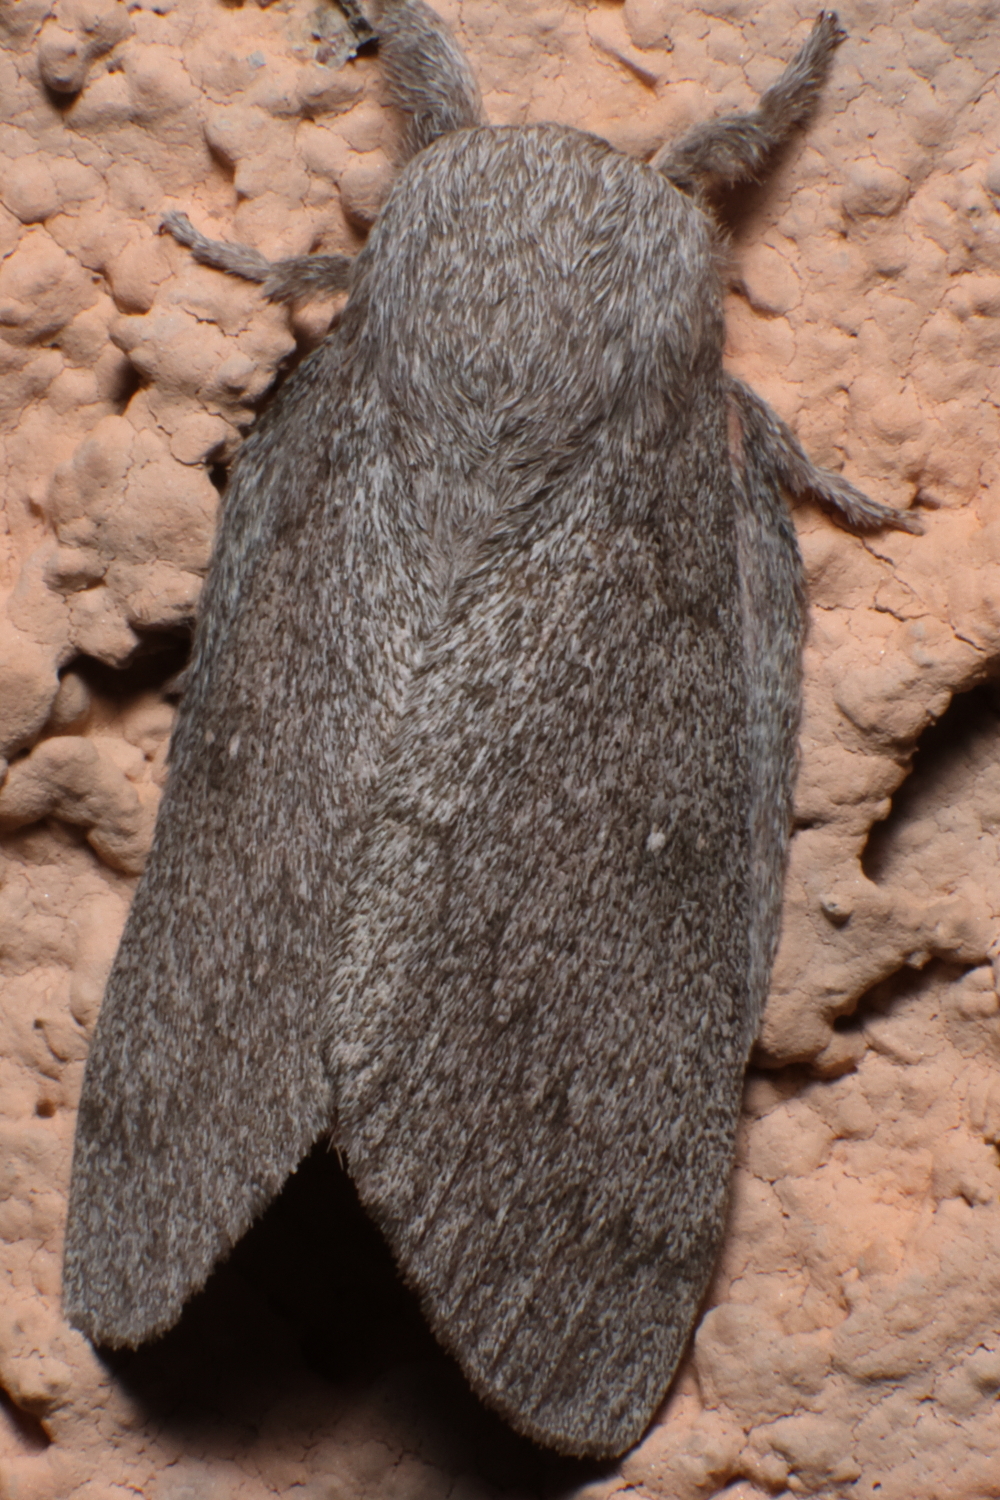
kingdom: Animalia
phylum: Arthropoda
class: Insecta
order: Lepidoptera
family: Saturniidae
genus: Syssphinx
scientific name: Syssphinx hubbardi
